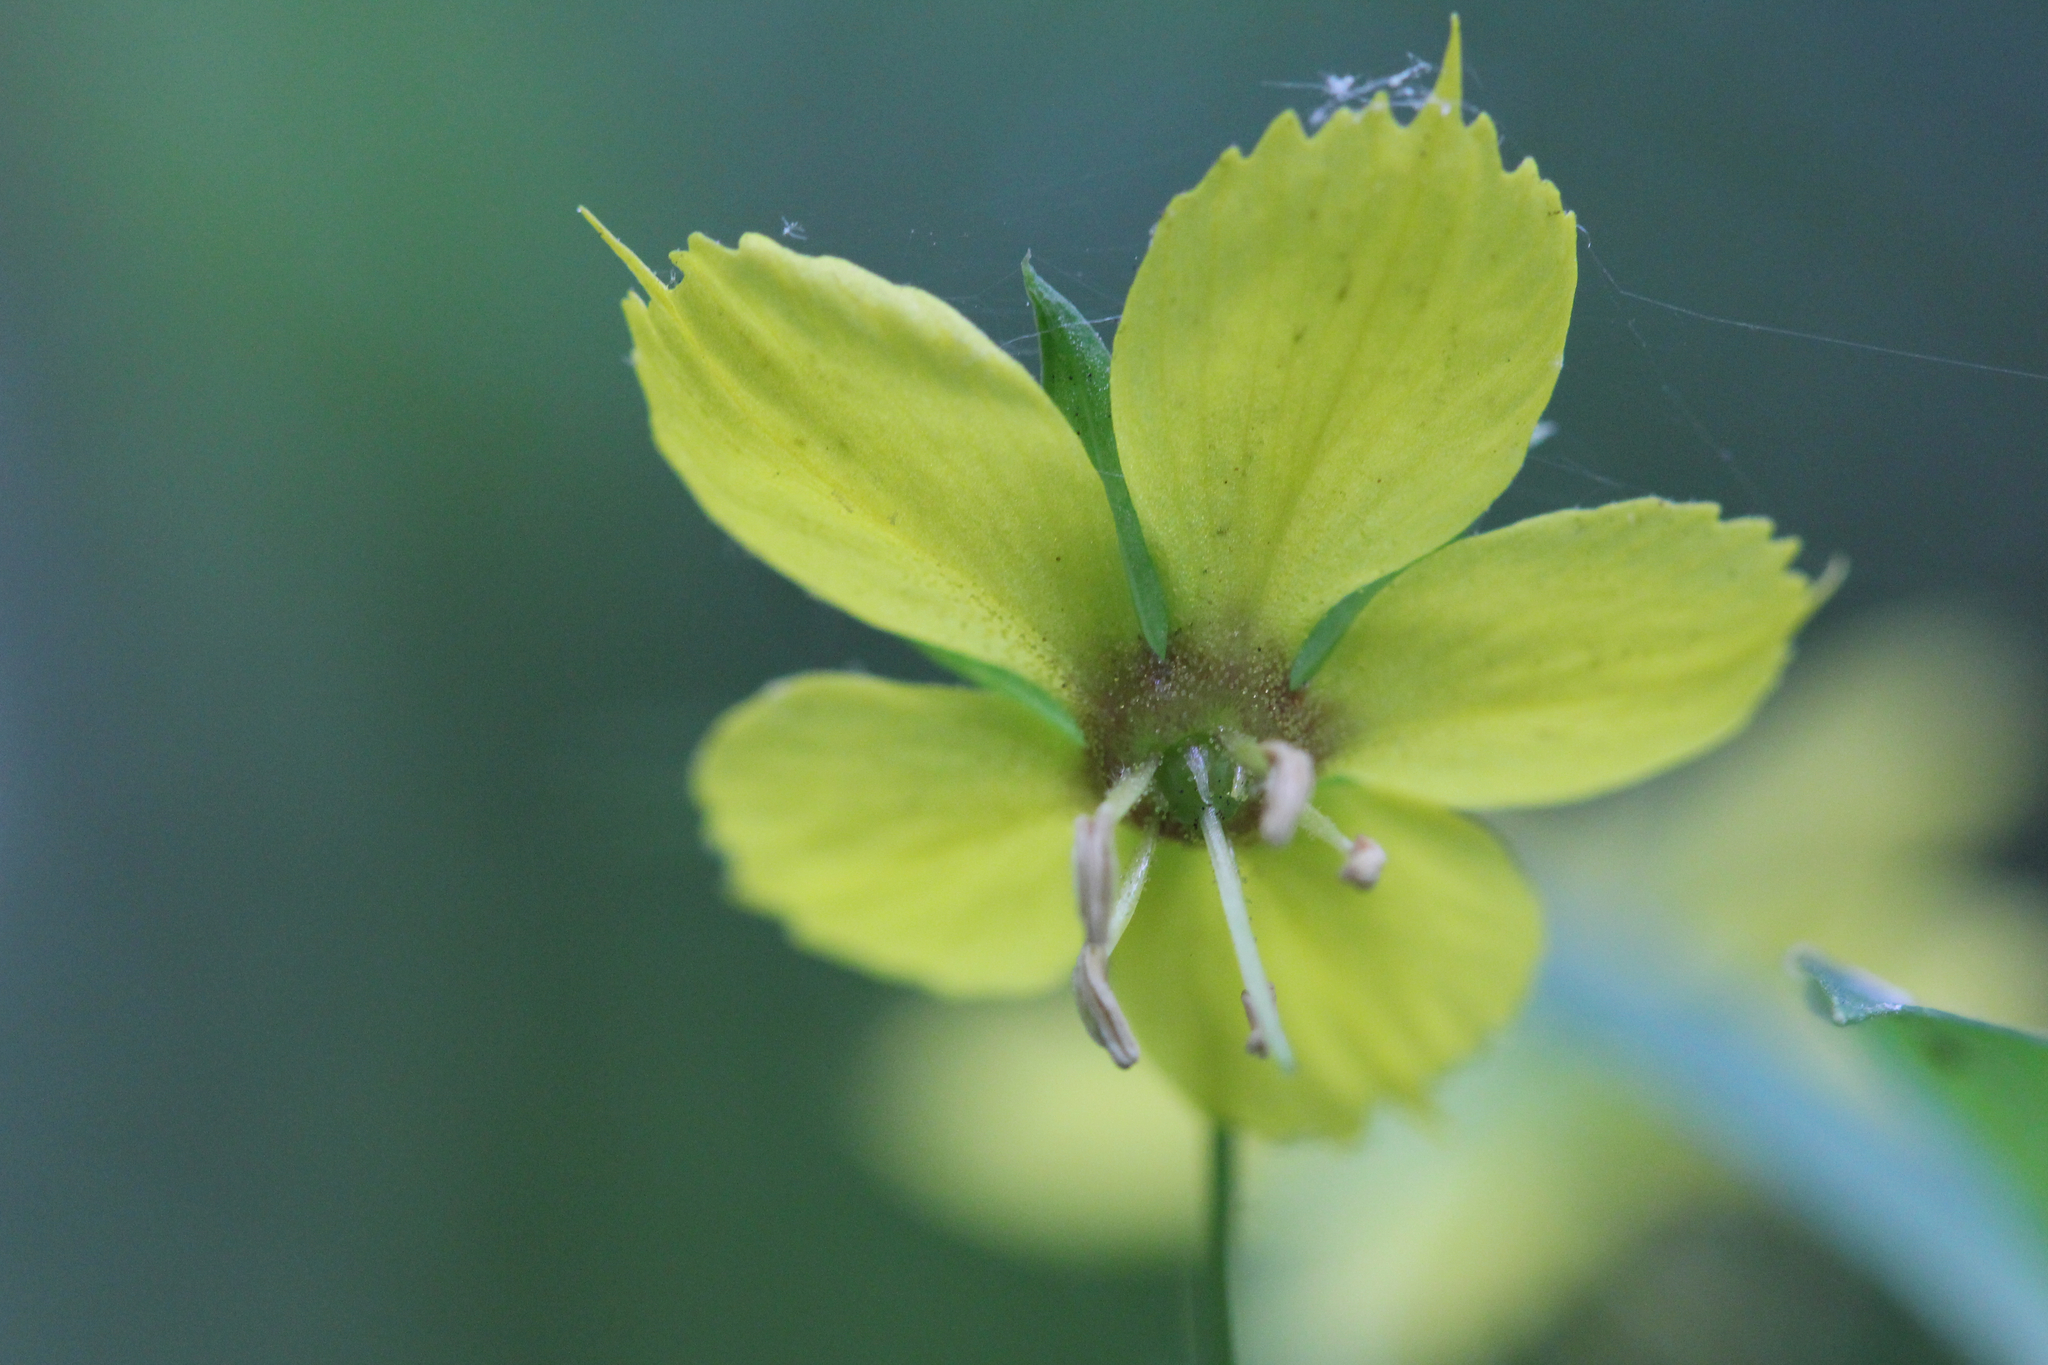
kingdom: Plantae
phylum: Tracheophyta
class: Magnoliopsida
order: Ericales
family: Primulaceae
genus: Lysimachia
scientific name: Lysimachia lanceolata
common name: Lance-leaved loosestrife
